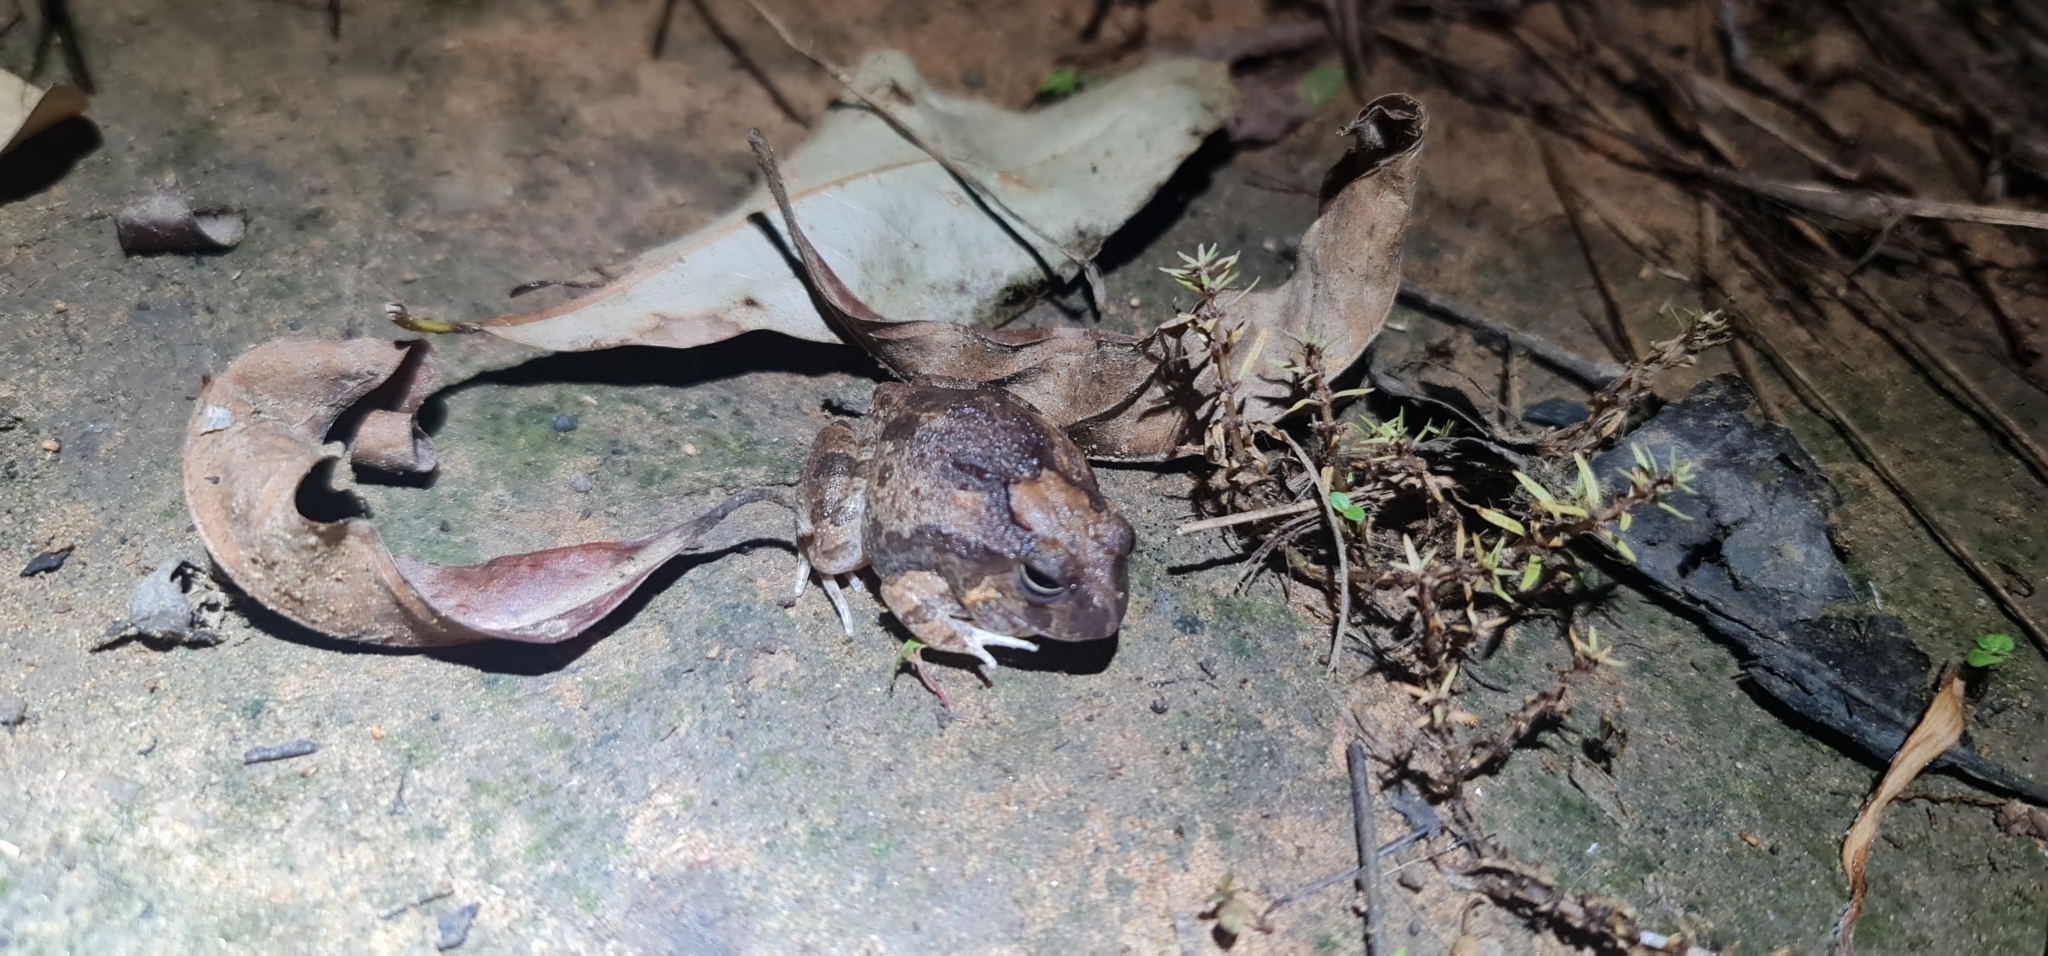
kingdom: Animalia
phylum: Chordata
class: Amphibia
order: Anura
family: Limnodynastidae
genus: Platyplectrum
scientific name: Platyplectrum ornatum
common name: Ornate burrowing frog
